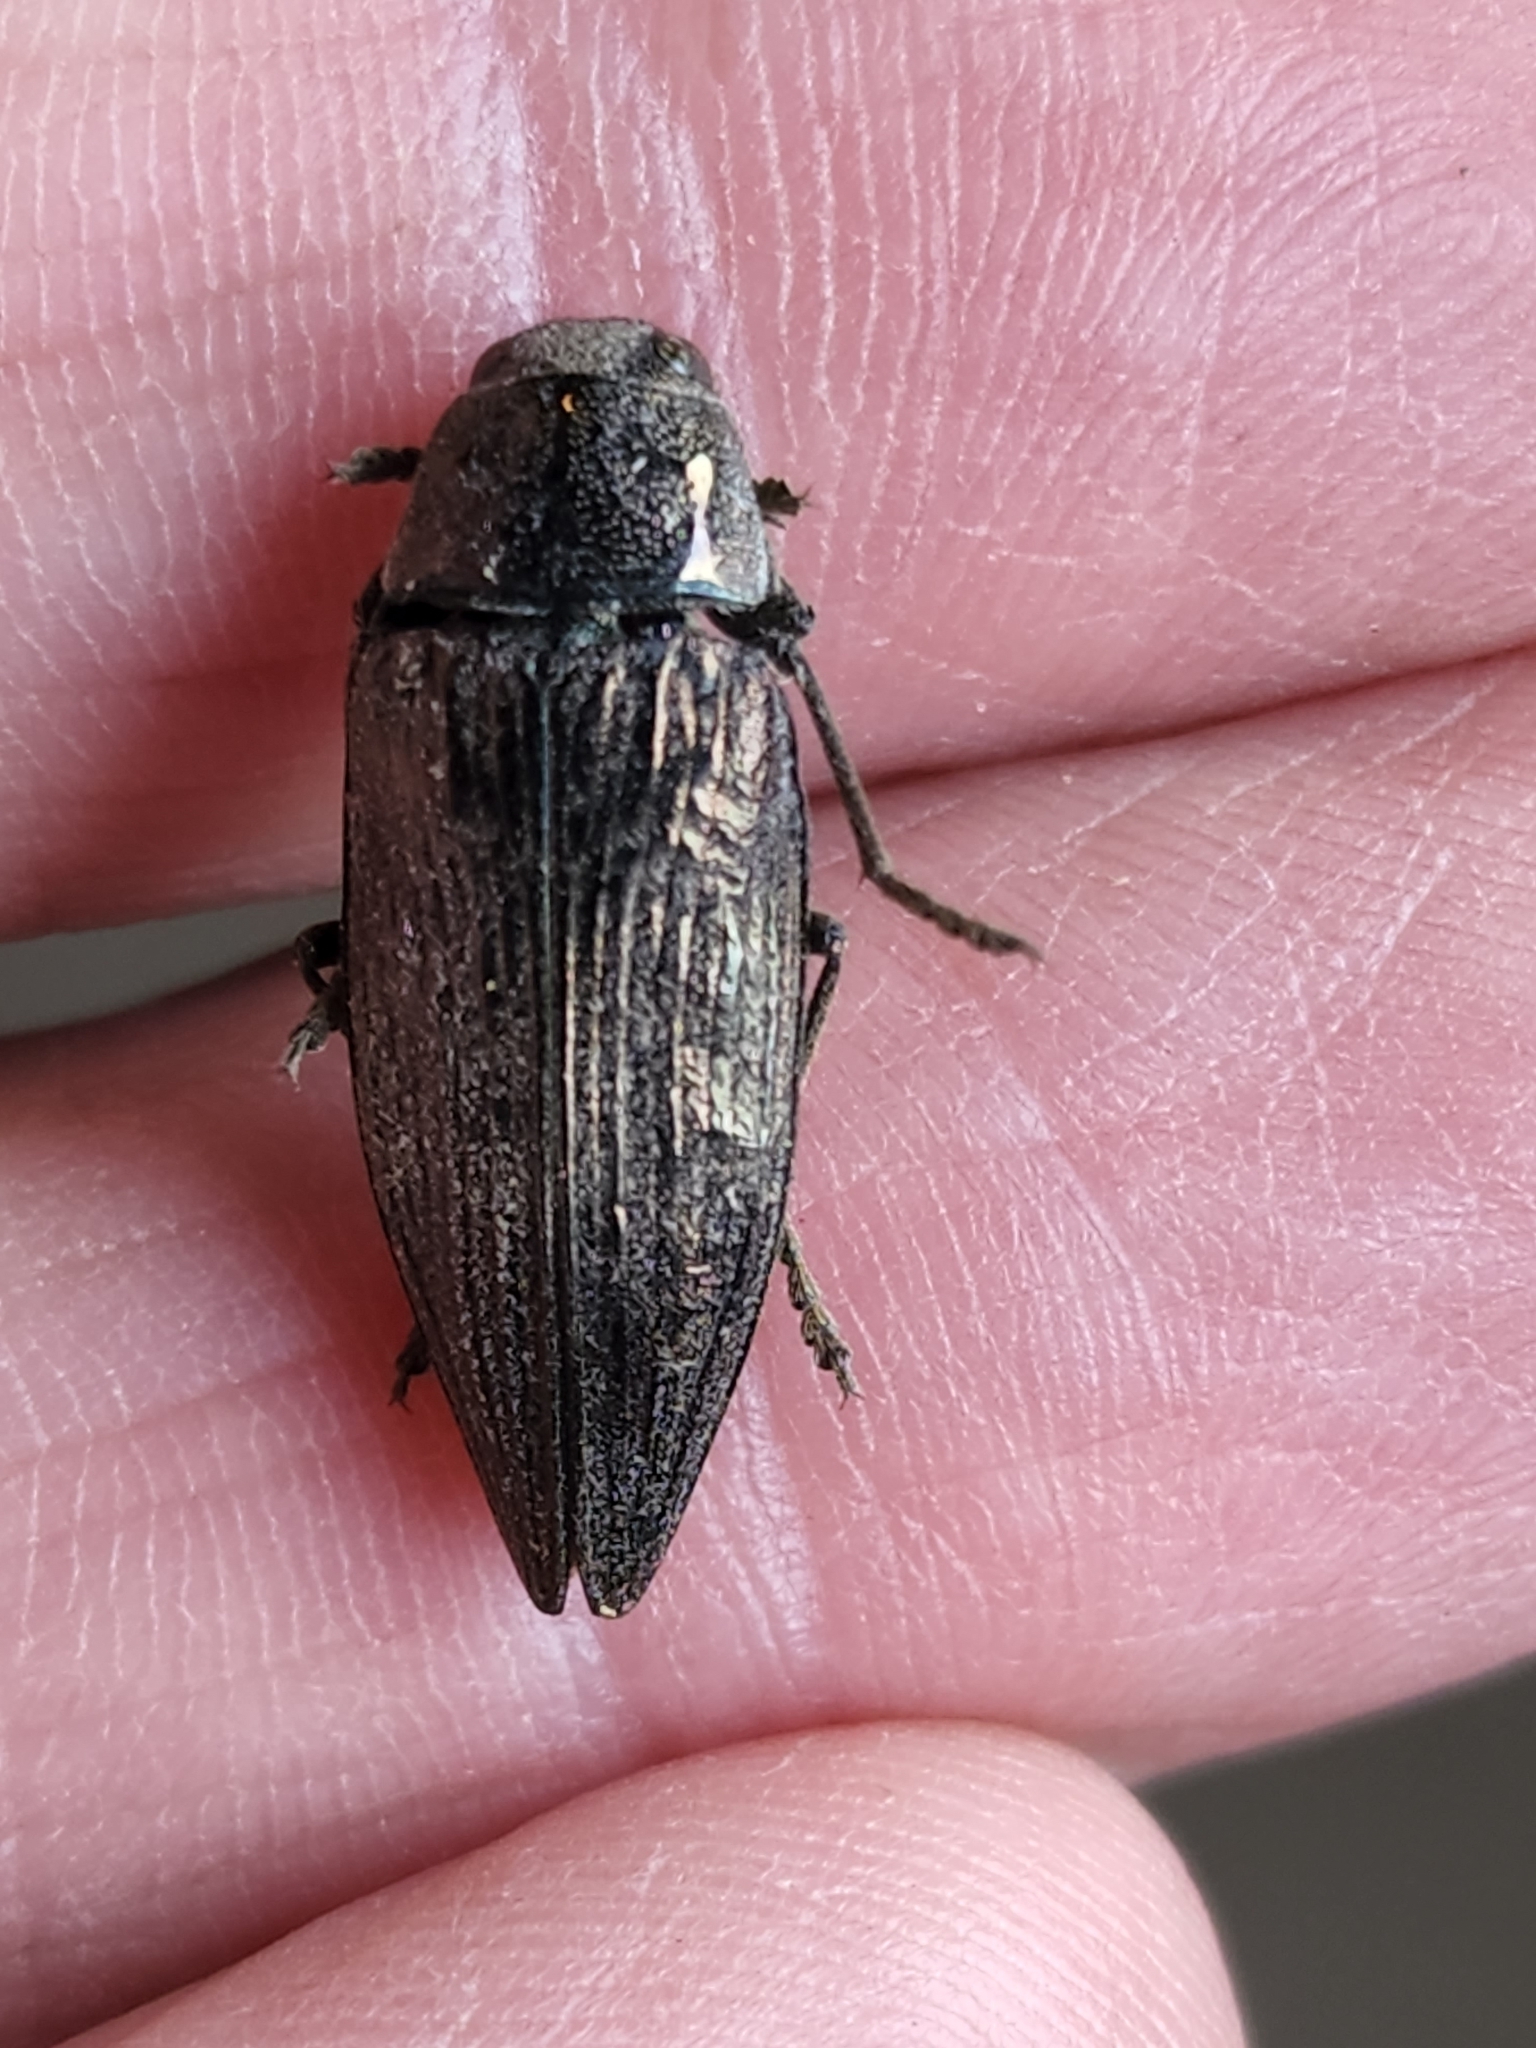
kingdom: Animalia
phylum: Arthropoda
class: Insecta
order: Coleoptera
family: Buprestidae
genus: Buprestis
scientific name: Buprestis maculativentris
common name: Spotted-belly buprestid beetle
